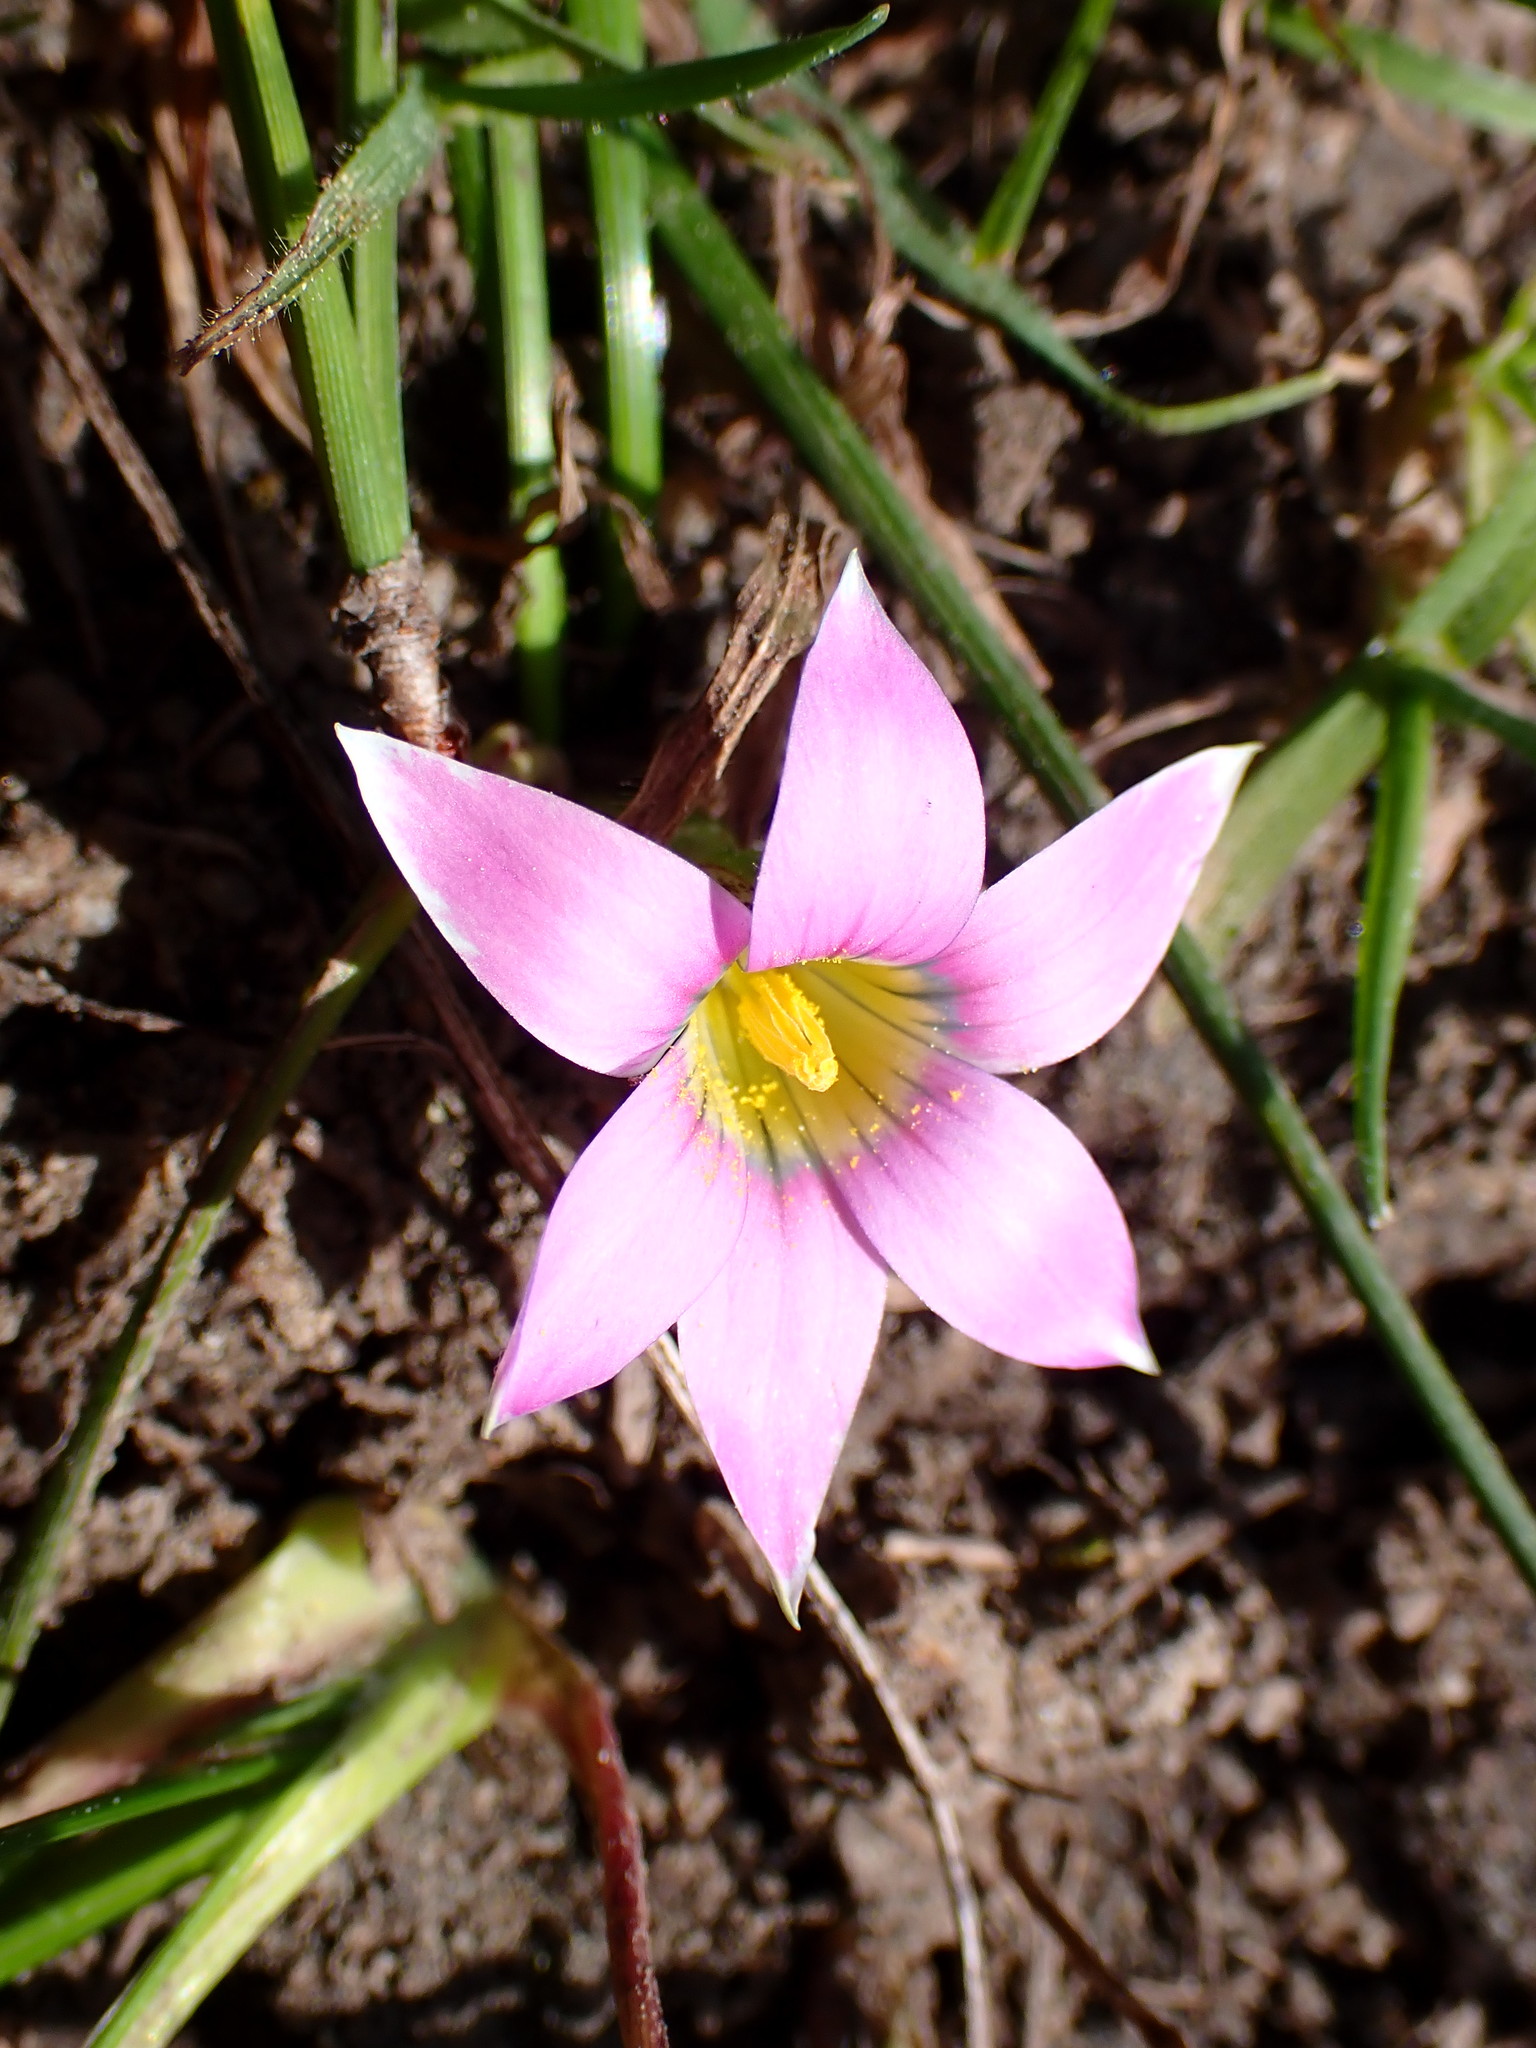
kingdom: Plantae
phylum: Tracheophyta
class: Liliopsida
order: Asparagales
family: Iridaceae
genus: Romulea
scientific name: Romulea rosea
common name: Oniongrass
